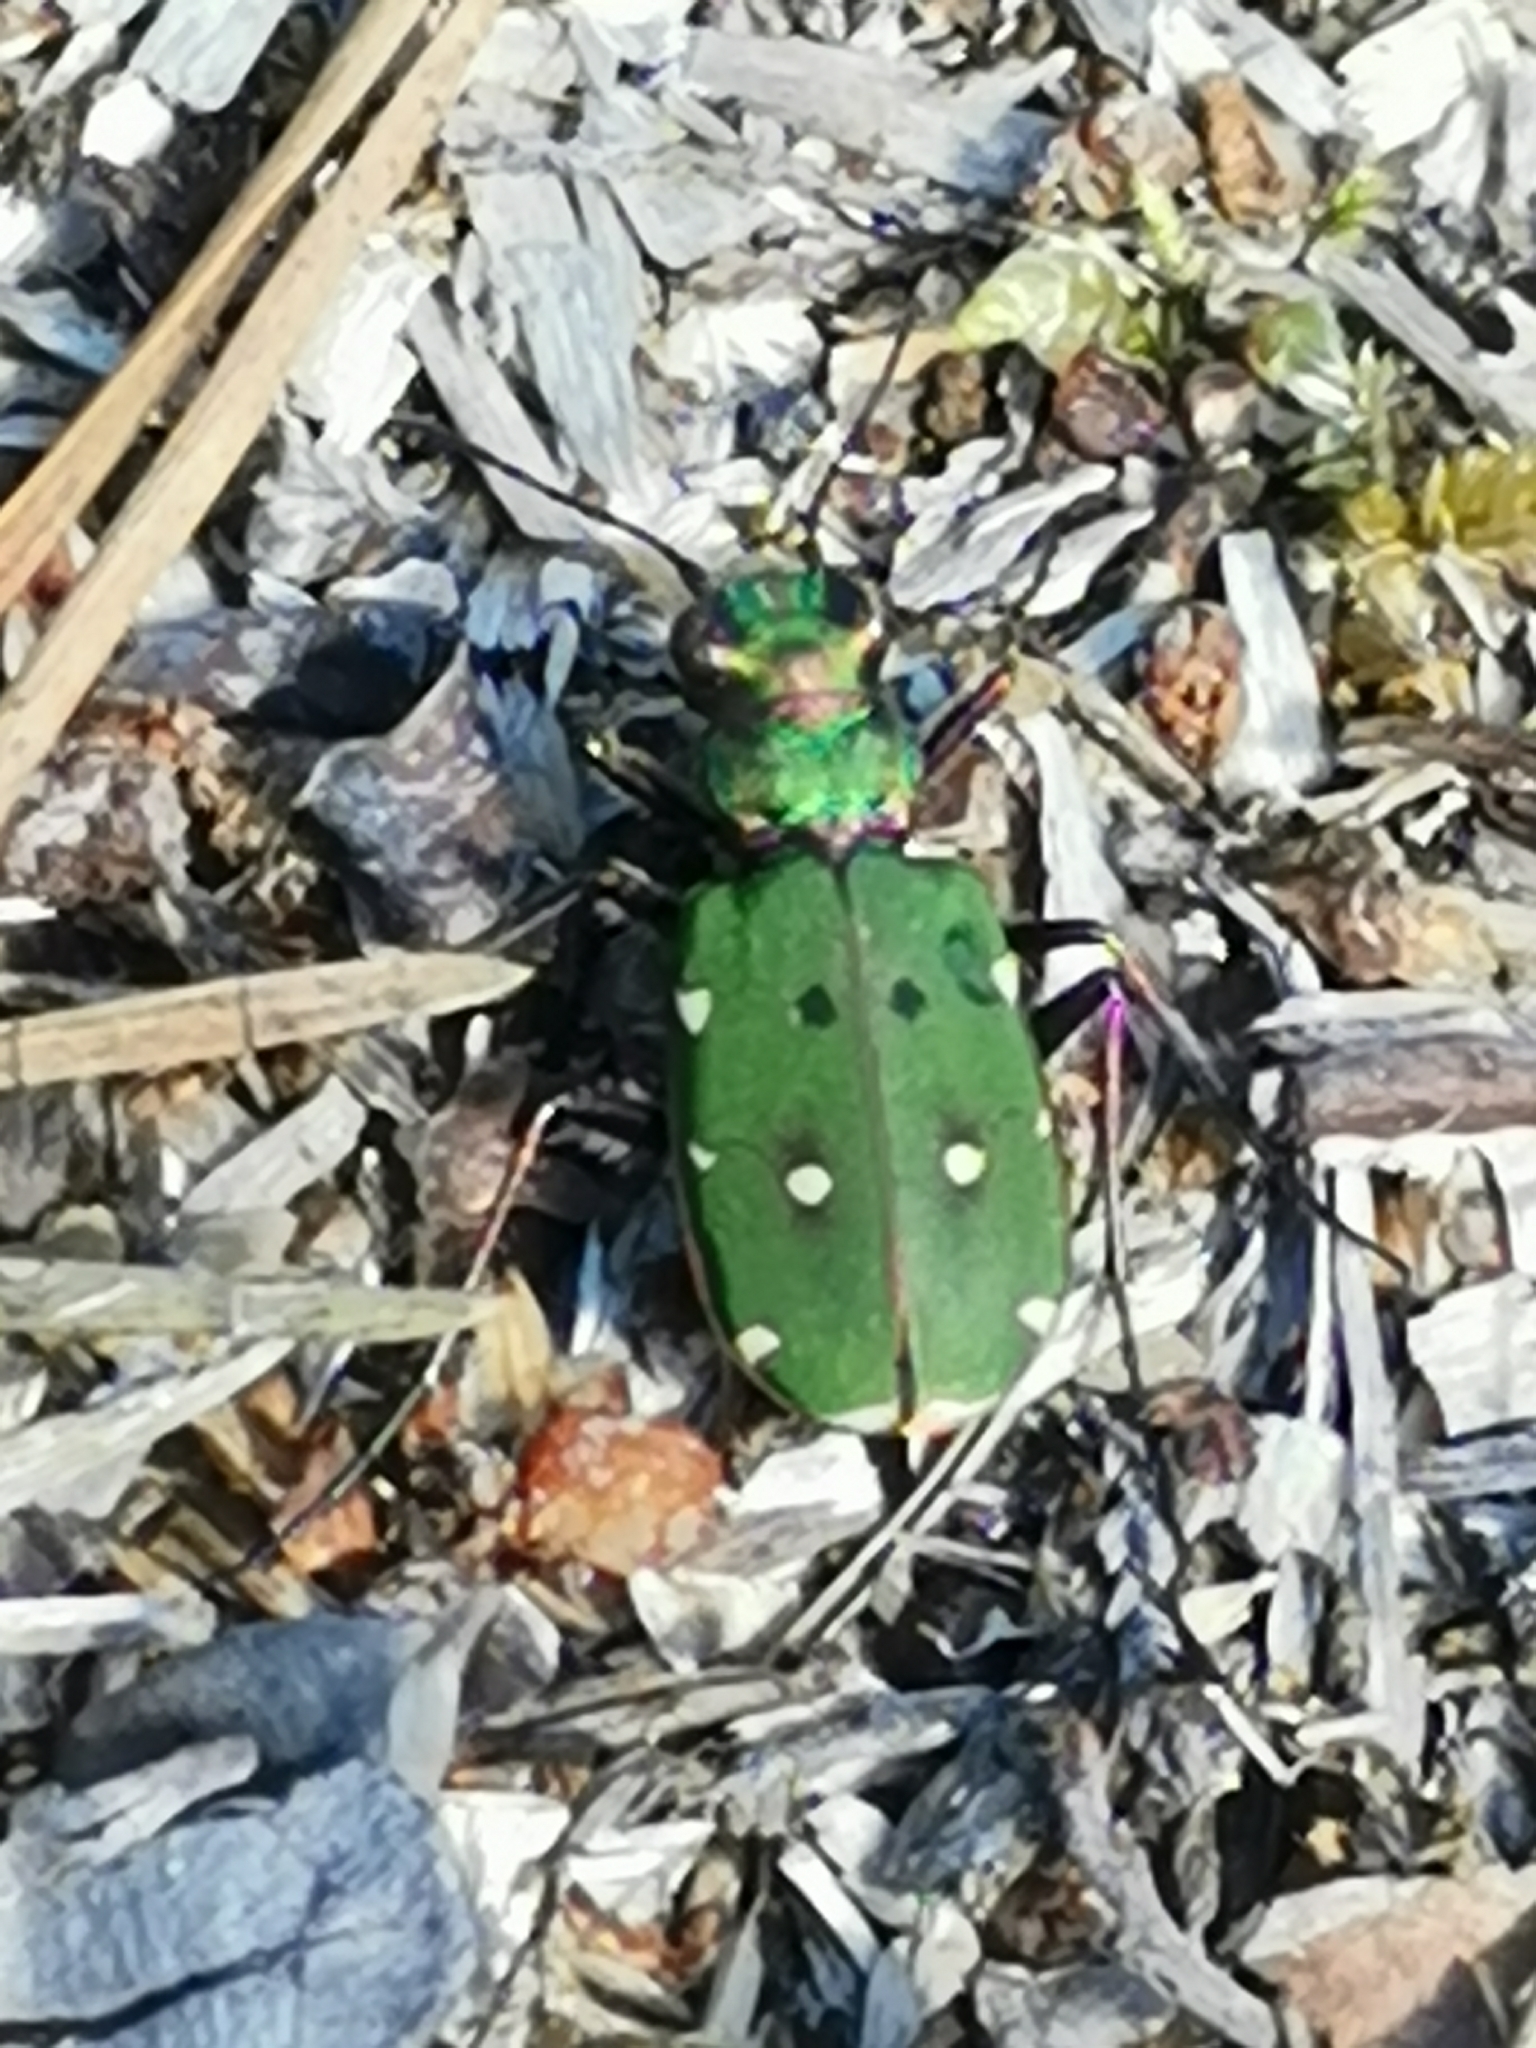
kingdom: Animalia
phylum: Arthropoda
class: Insecta
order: Coleoptera
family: Carabidae
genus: Cicindela
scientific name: Cicindela campestris
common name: Common tiger beetle
